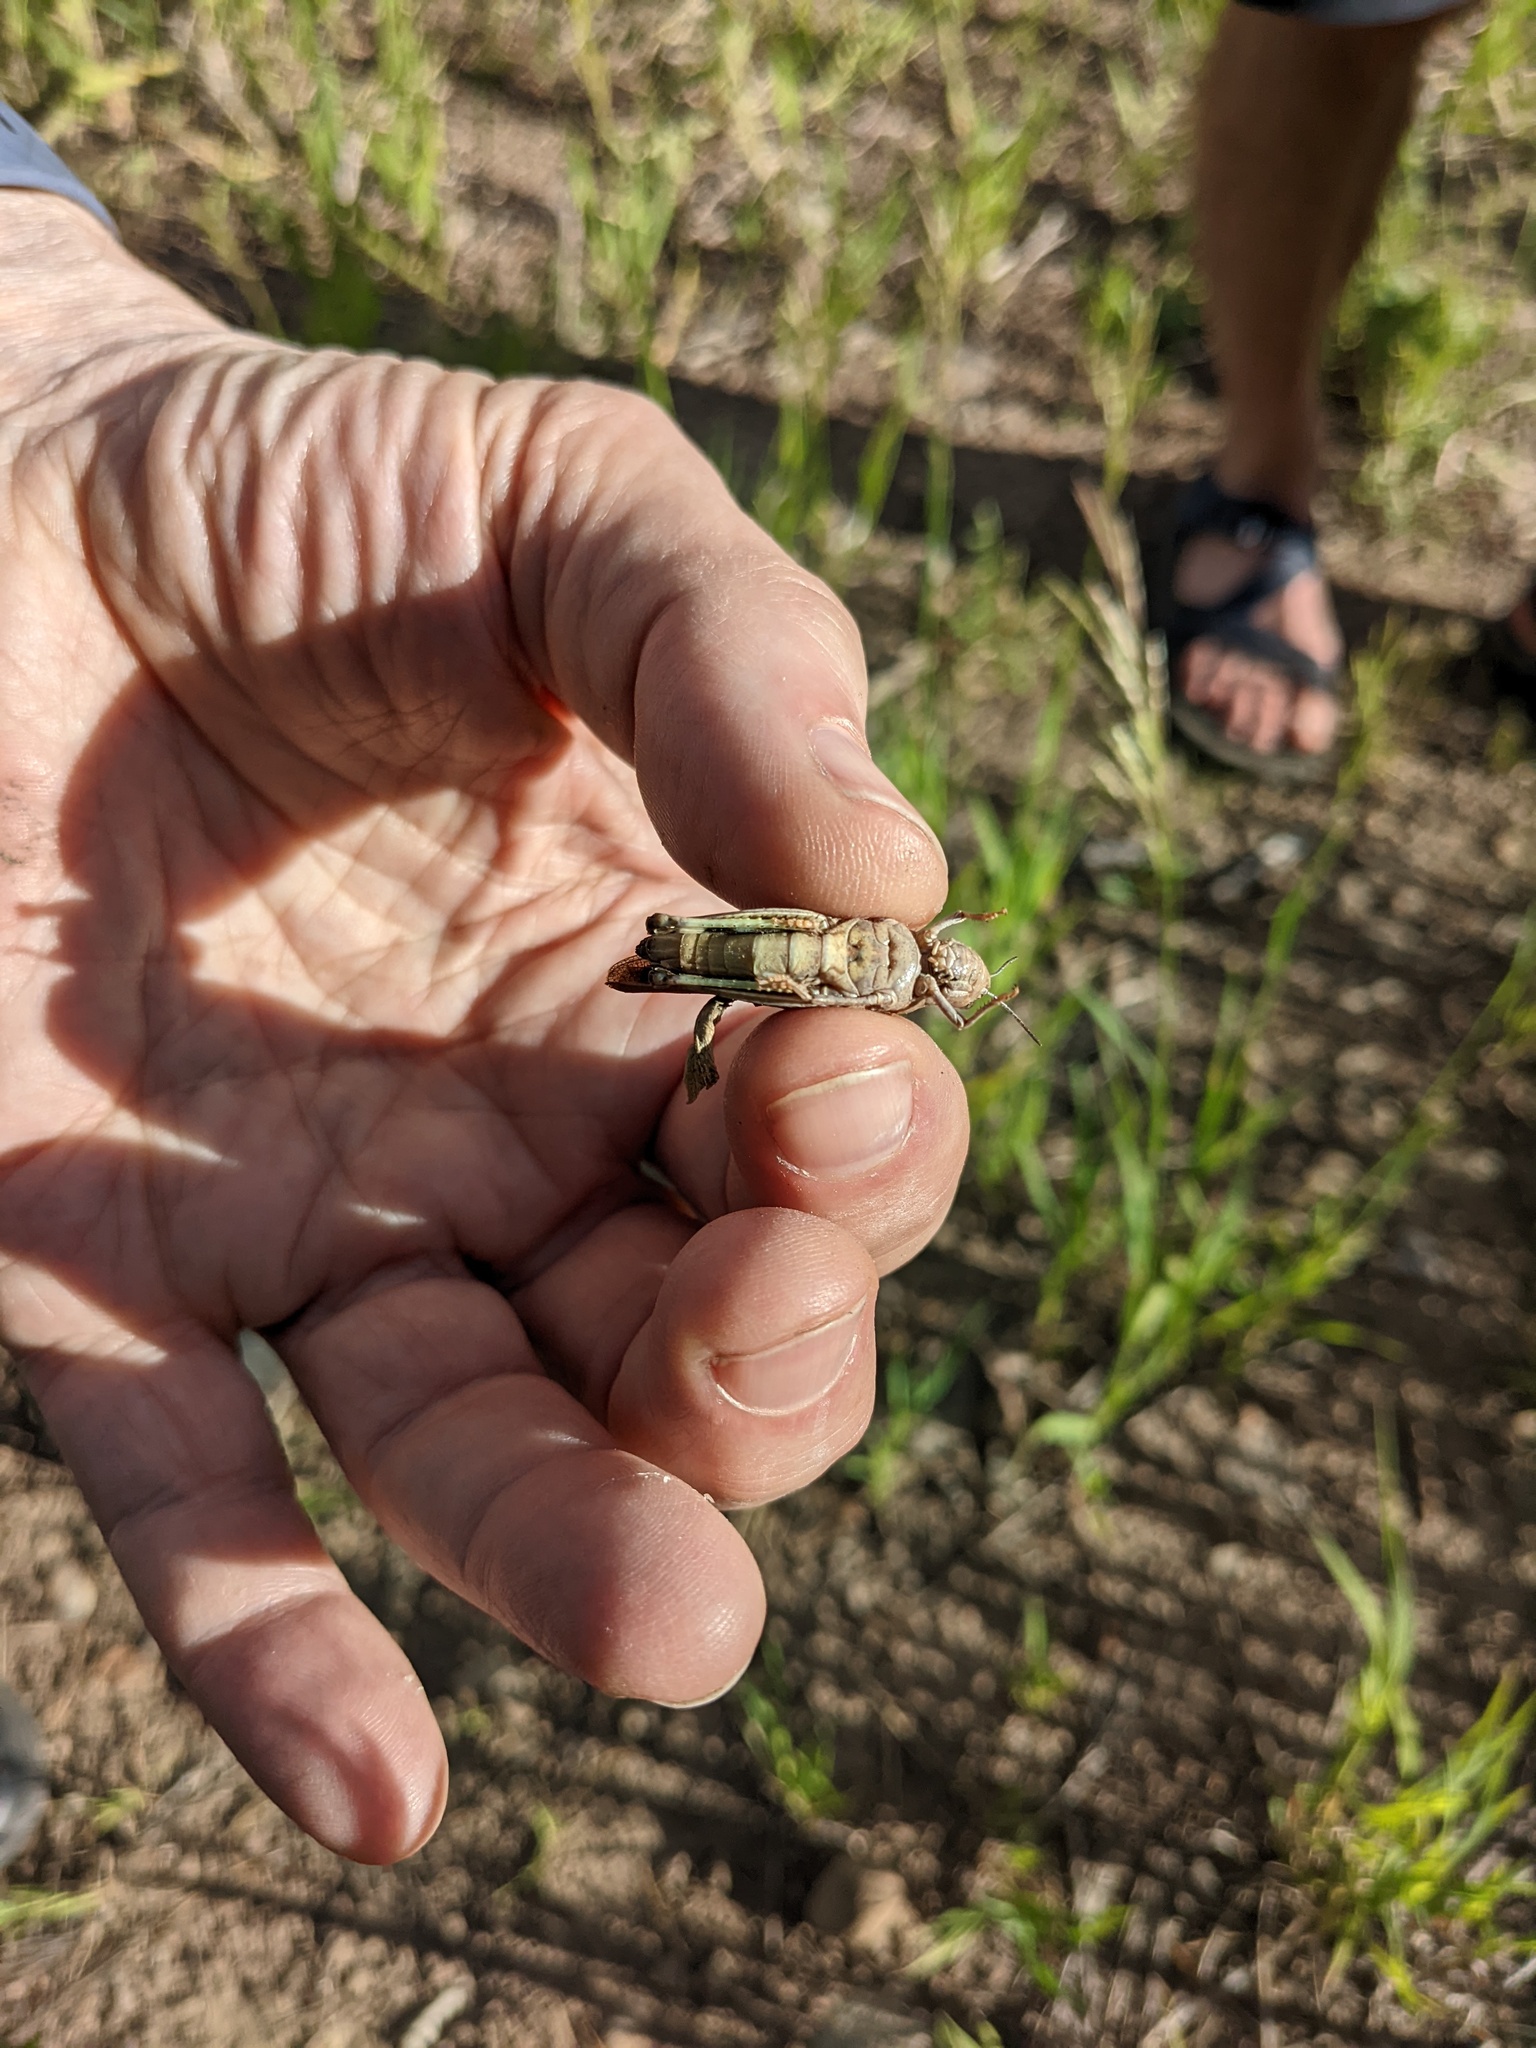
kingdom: Animalia
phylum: Arthropoda
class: Insecta
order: Orthoptera
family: Acrididae
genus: Arphia
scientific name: Arphia conspersa
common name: Speckle-winged rangeland grasshopper
